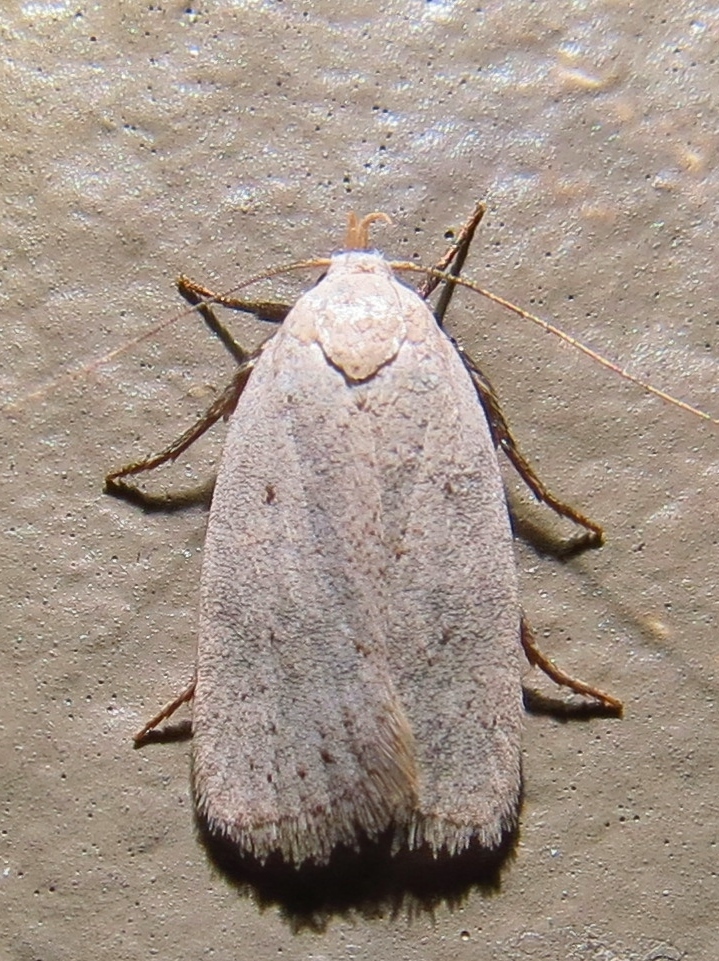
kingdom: Animalia
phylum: Arthropoda
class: Insecta
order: Lepidoptera
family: Oecophoridae
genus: Inga
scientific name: Inga cretacea
